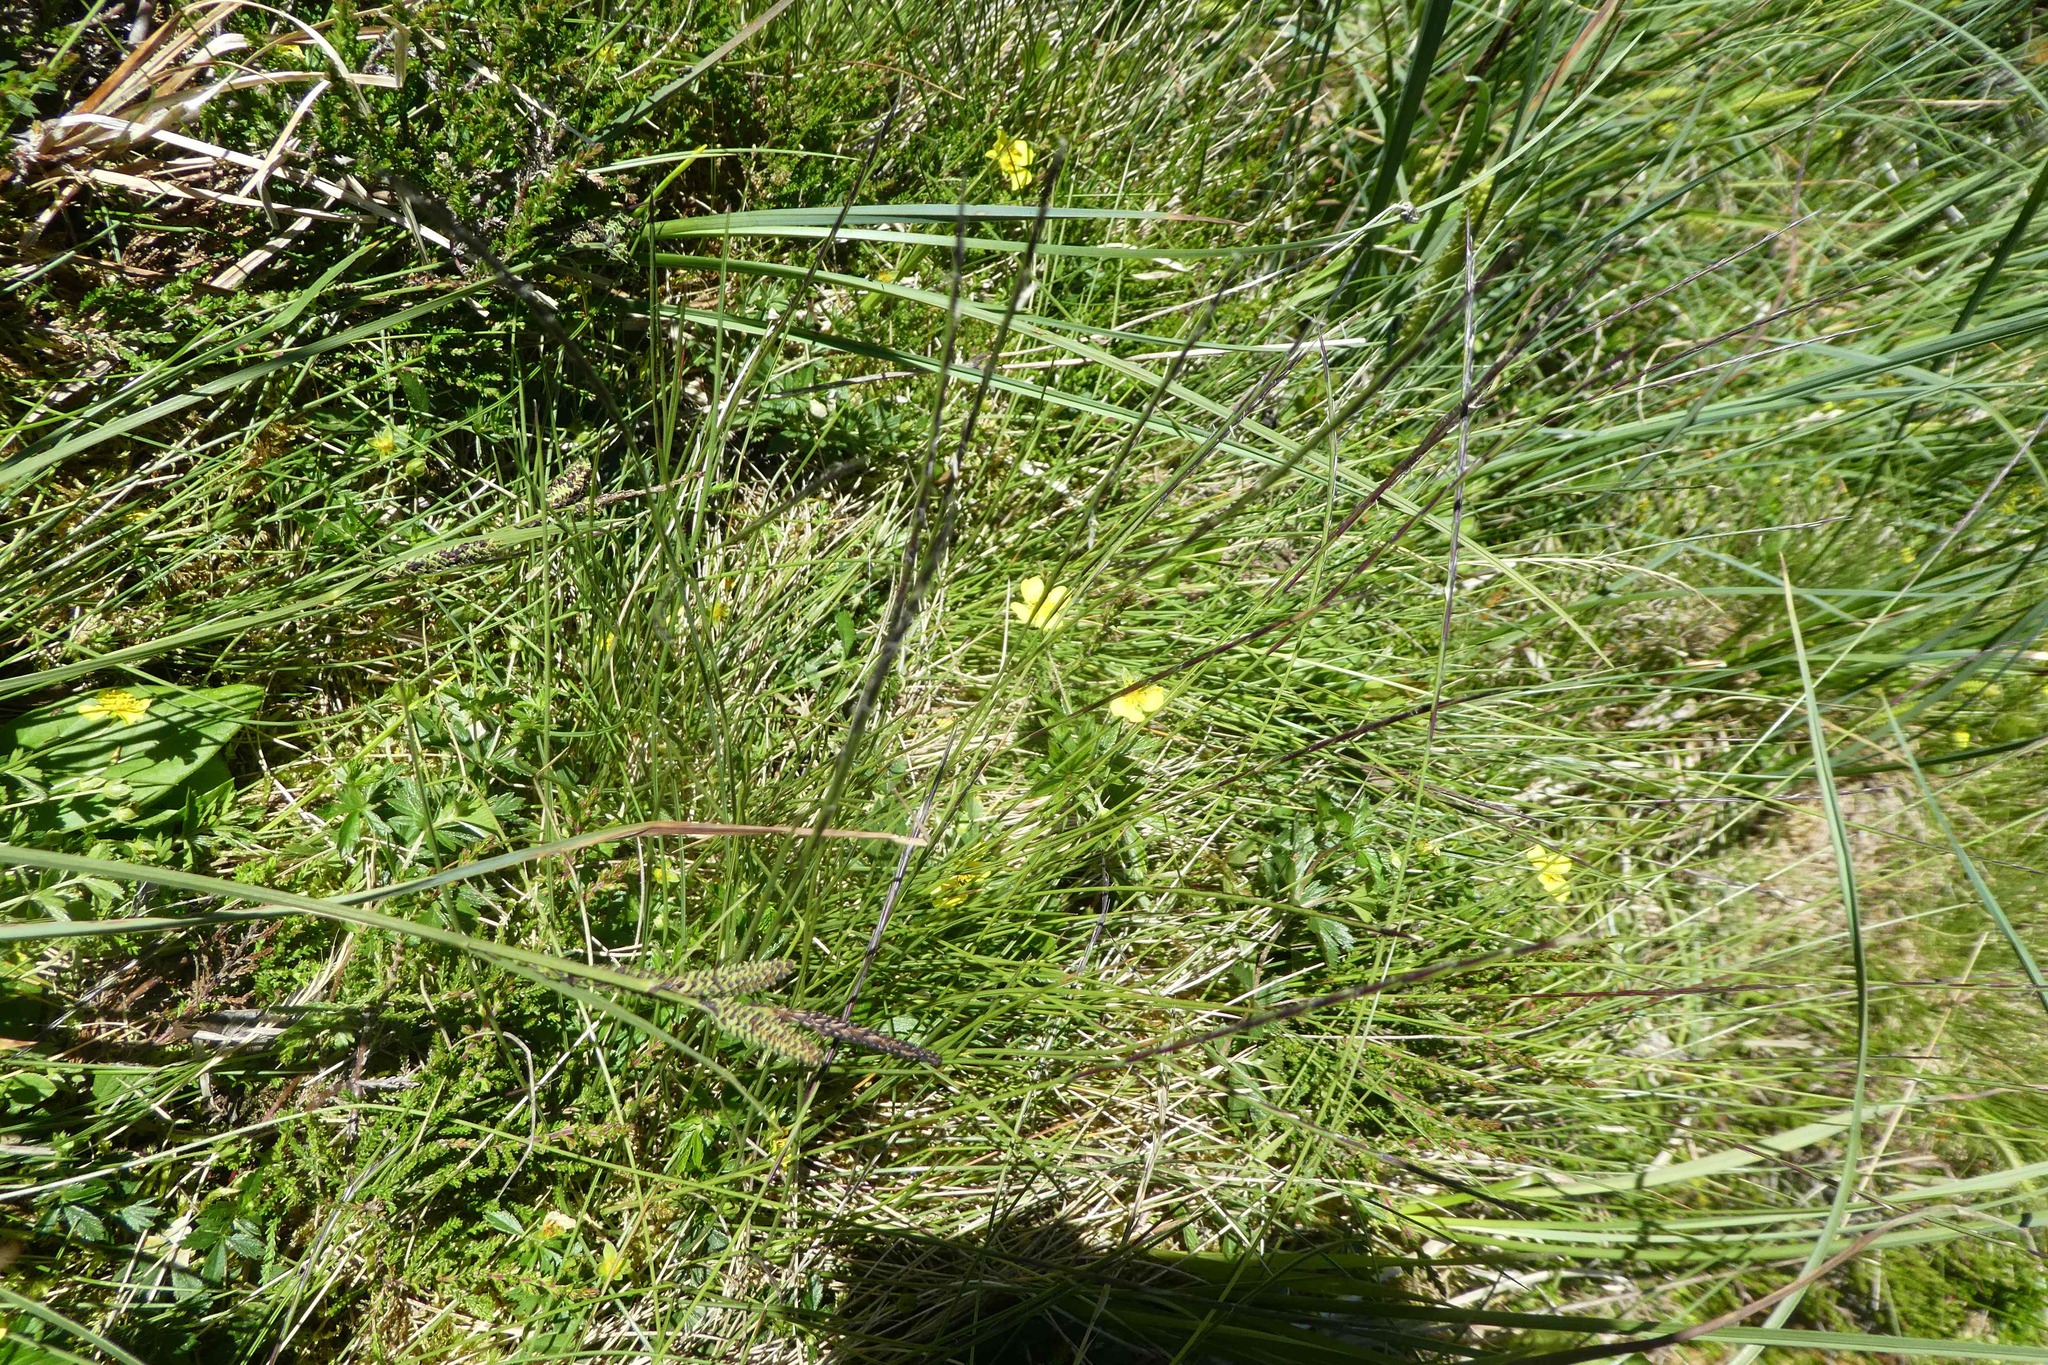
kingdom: Plantae
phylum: Tracheophyta
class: Liliopsida
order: Poales
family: Poaceae
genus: Nardus
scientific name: Nardus stricta
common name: Mat-grass
